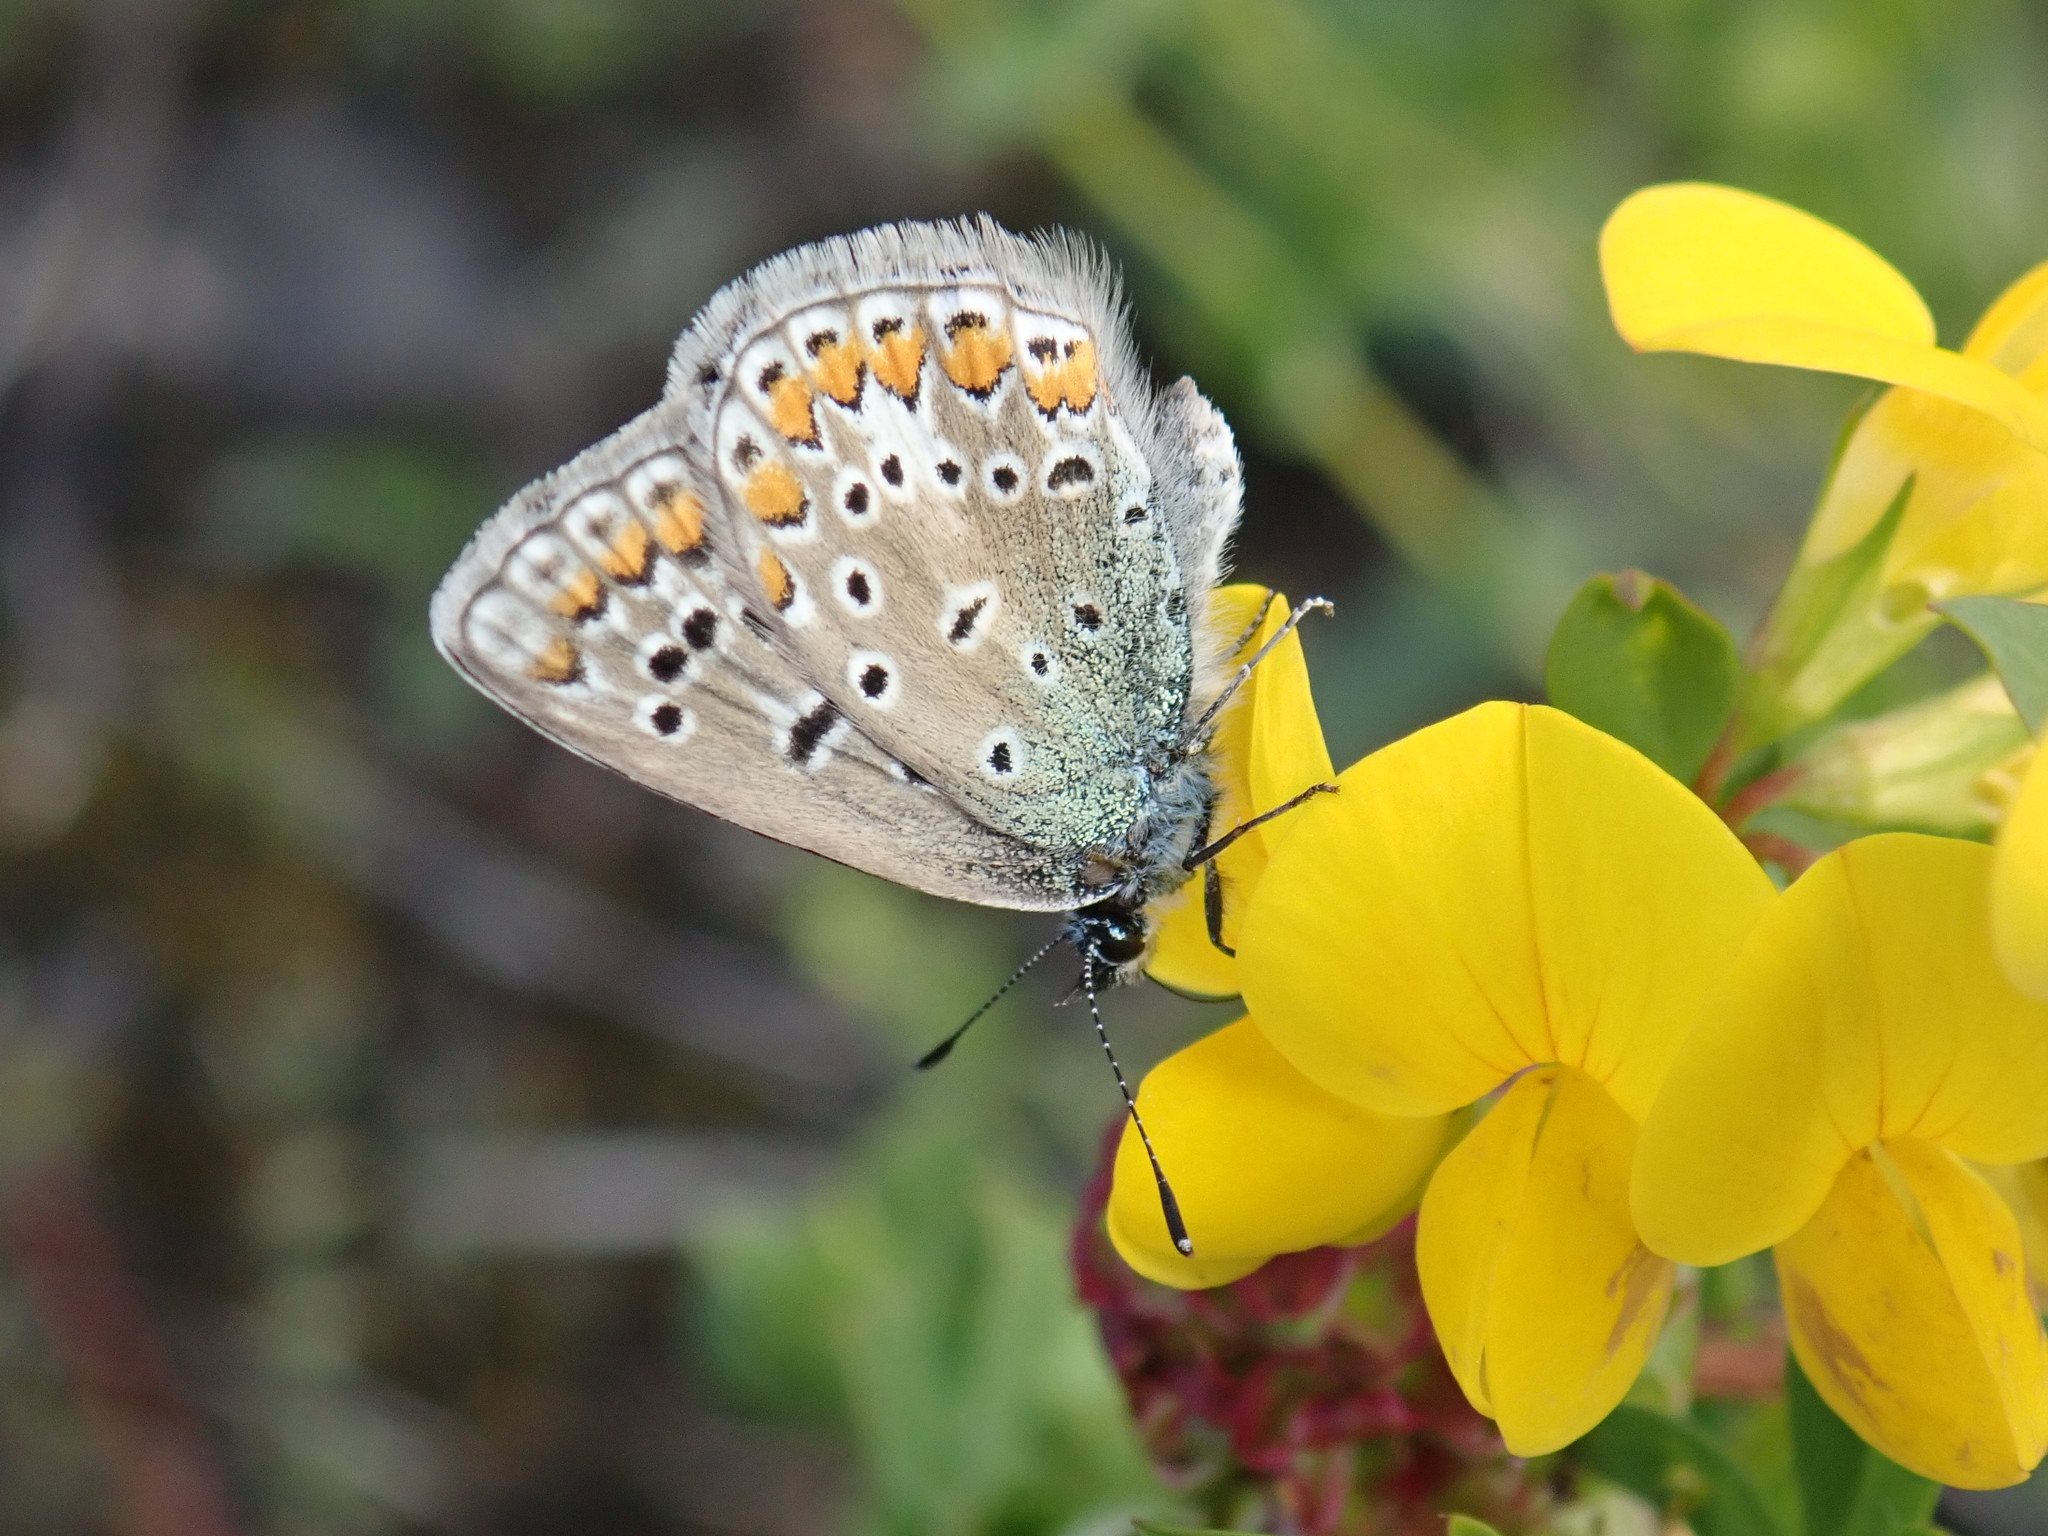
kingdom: Animalia
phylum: Arthropoda
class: Insecta
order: Lepidoptera
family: Lycaenidae
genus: Polyommatus
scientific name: Polyommatus icarus
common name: Common blue
